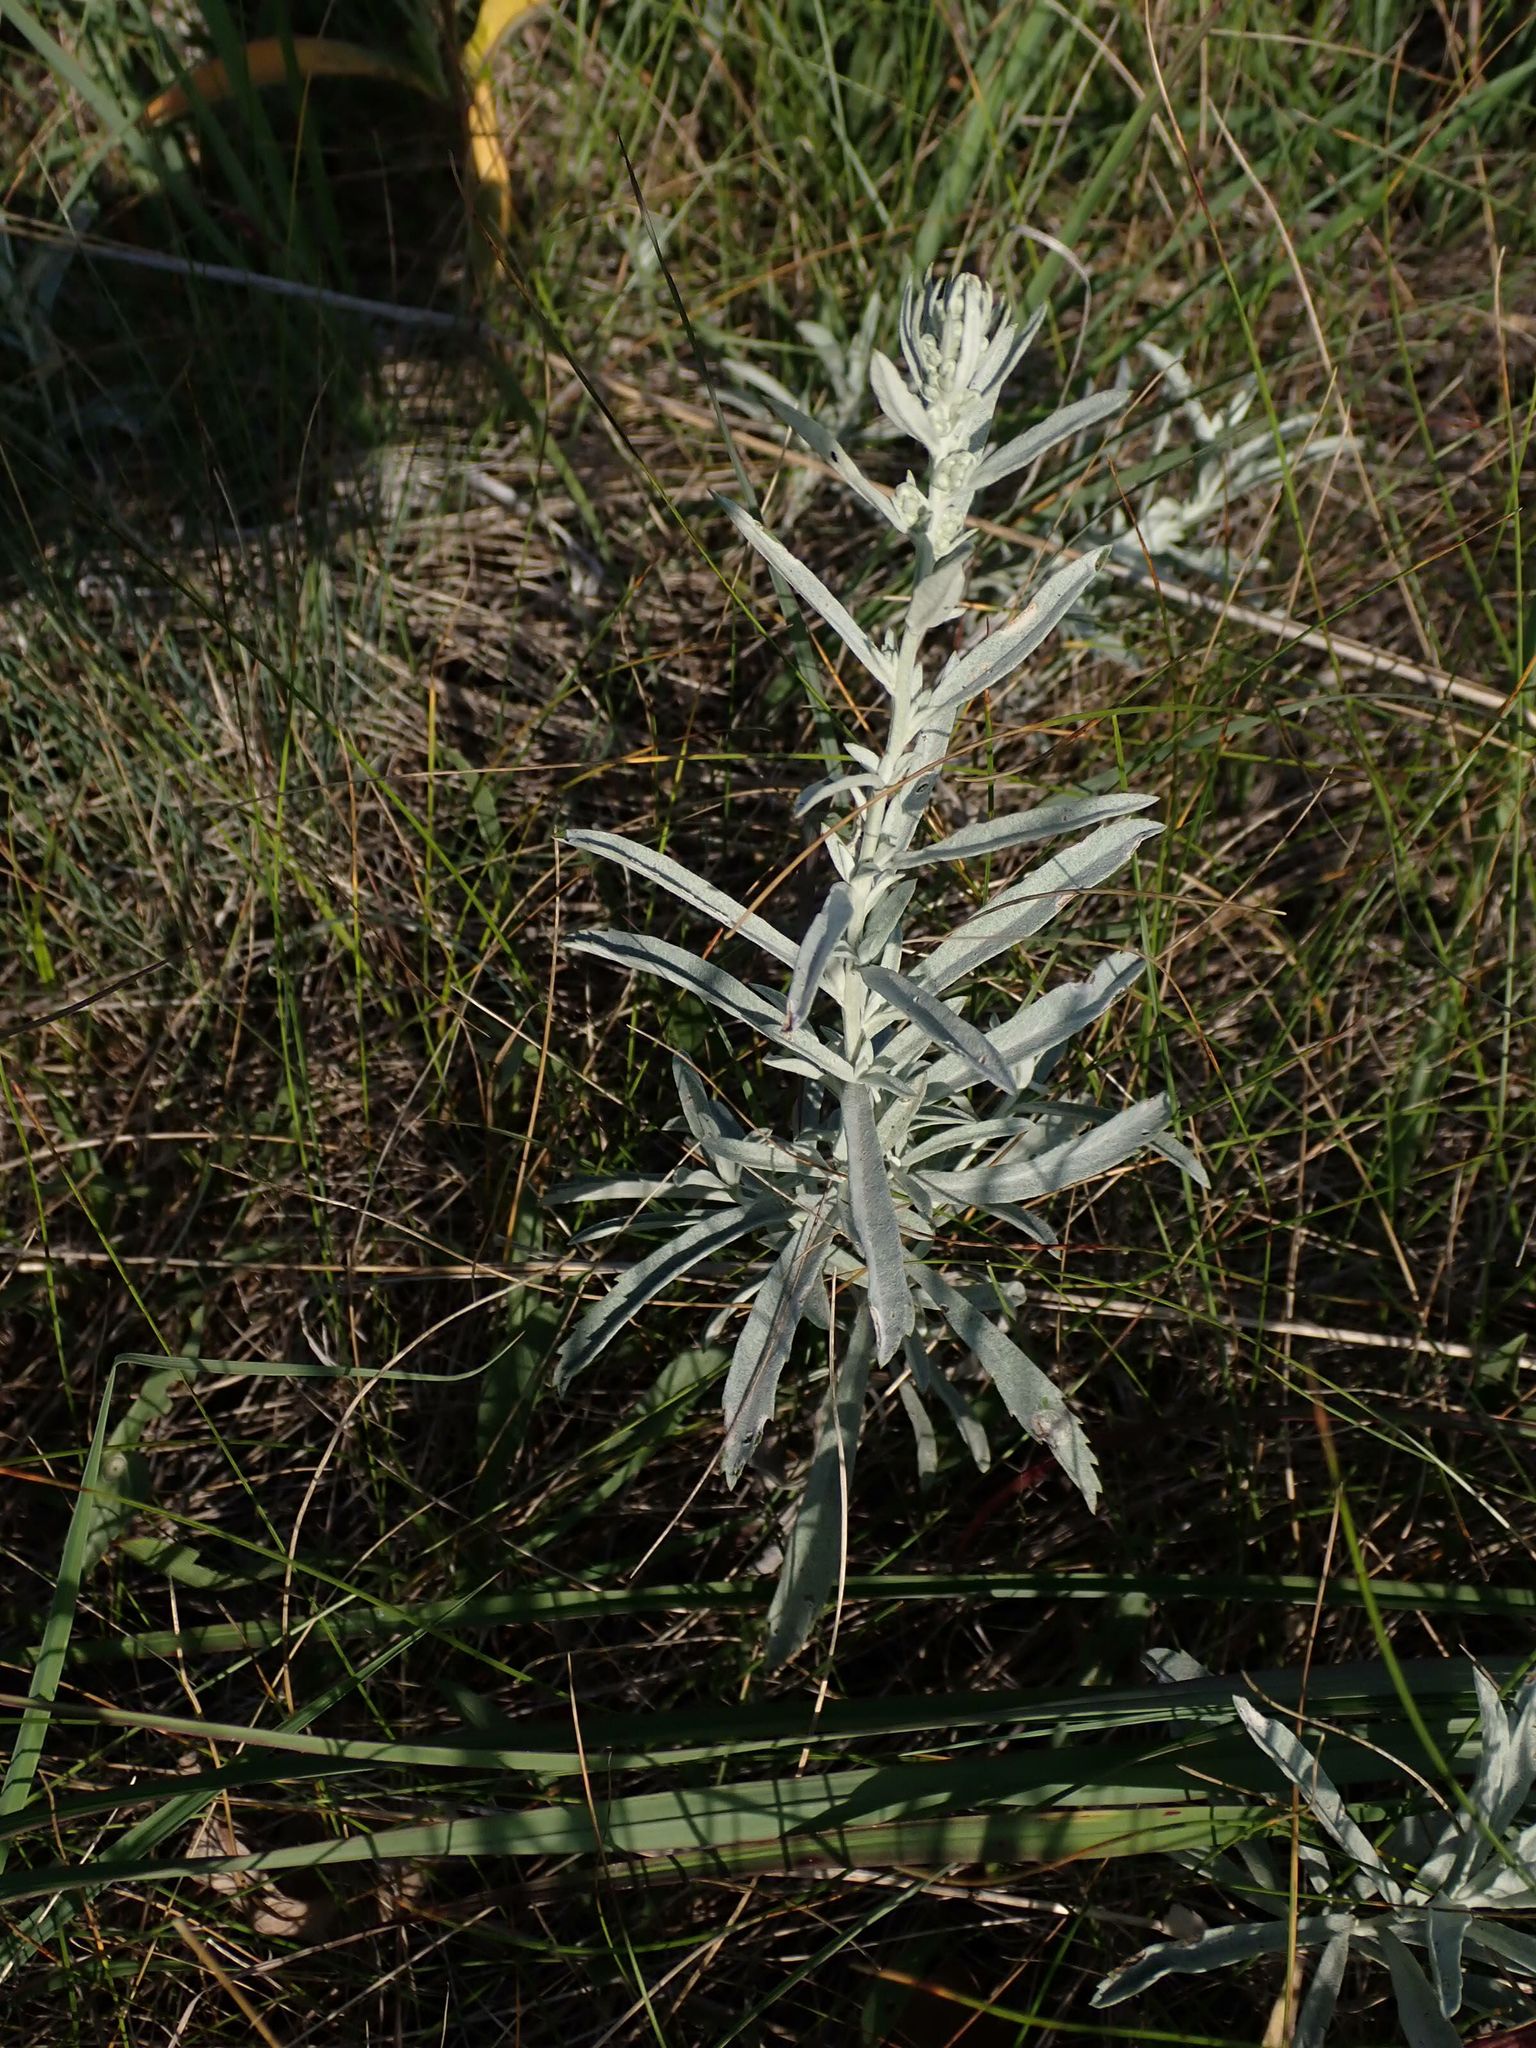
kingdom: Plantae
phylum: Tracheophyta
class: Magnoliopsida
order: Asterales
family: Asteraceae
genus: Artemisia
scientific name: Artemisia ludoviciana
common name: Western mugwort
